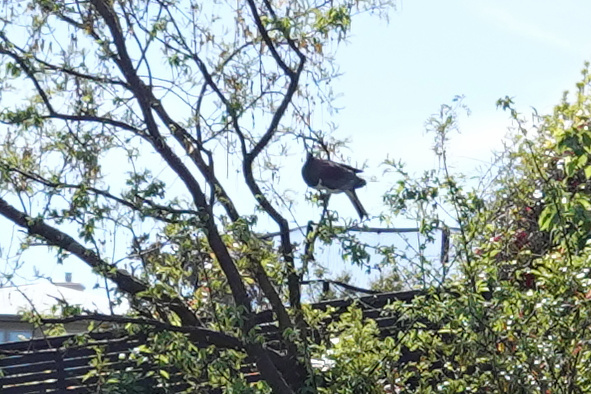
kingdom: Animalia
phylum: Chordata
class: Aves
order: Columbiformes
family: Columbidae
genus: Hemiphaga
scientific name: Hemiphaga novaeseelandiae
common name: New zealand pigeon
